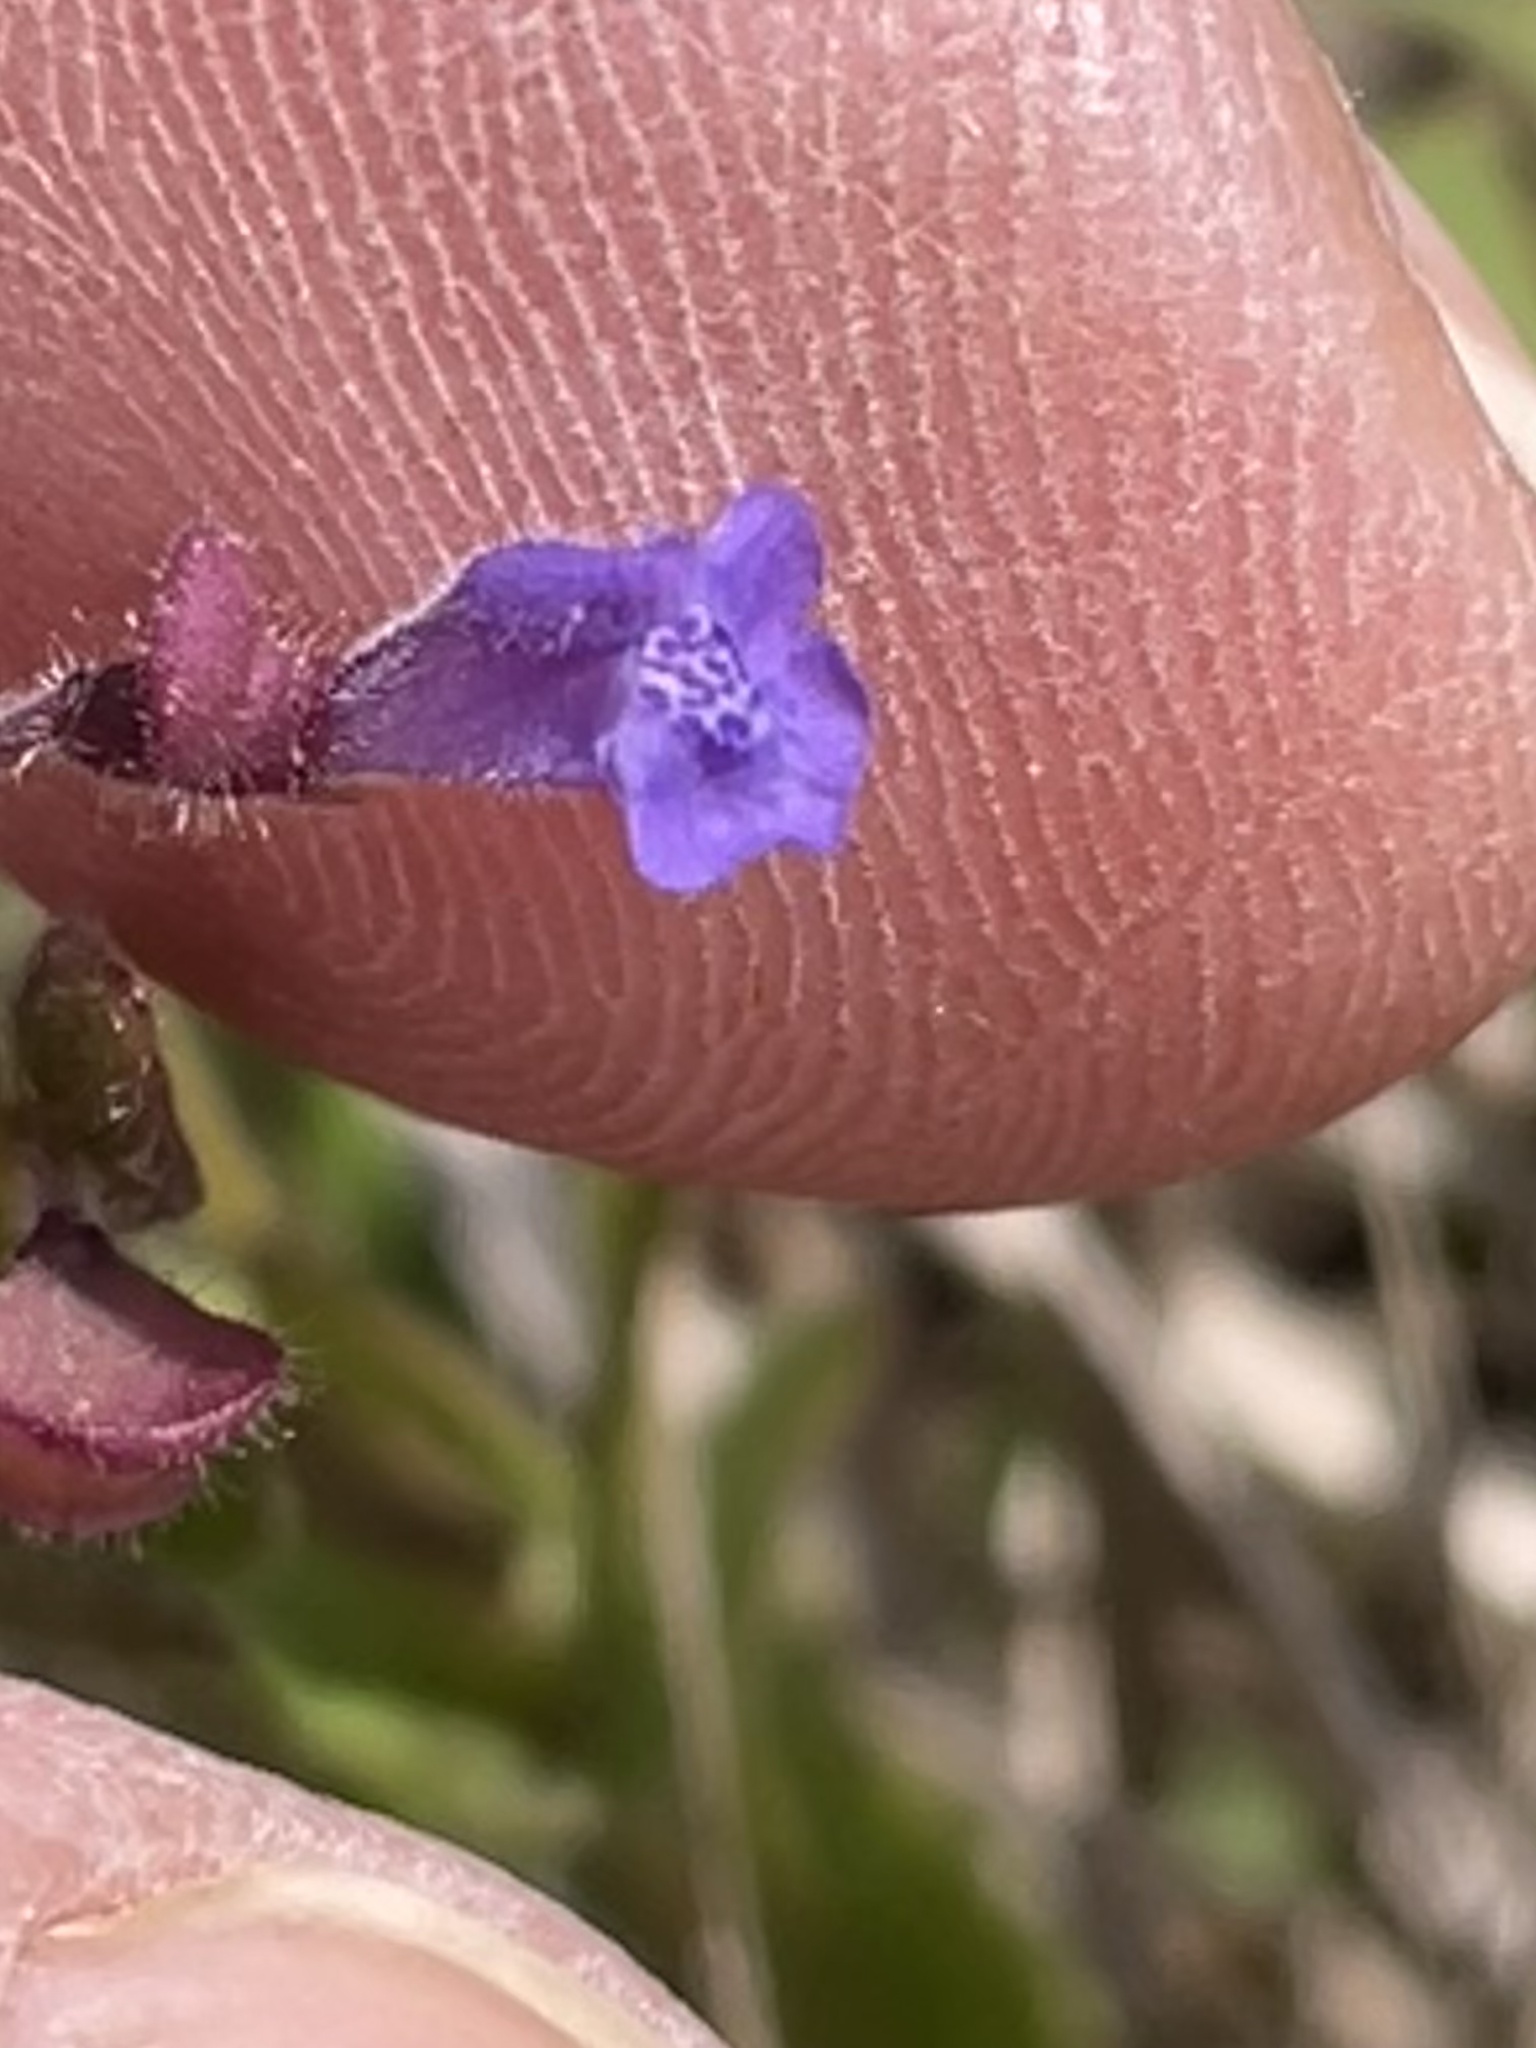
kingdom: Plantae
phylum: Tracheophyta
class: Magnoliopsida
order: Lamiales
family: Lamiaceae
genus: Scutellaria
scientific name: Scutellaria parvula
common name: Little scullcap
